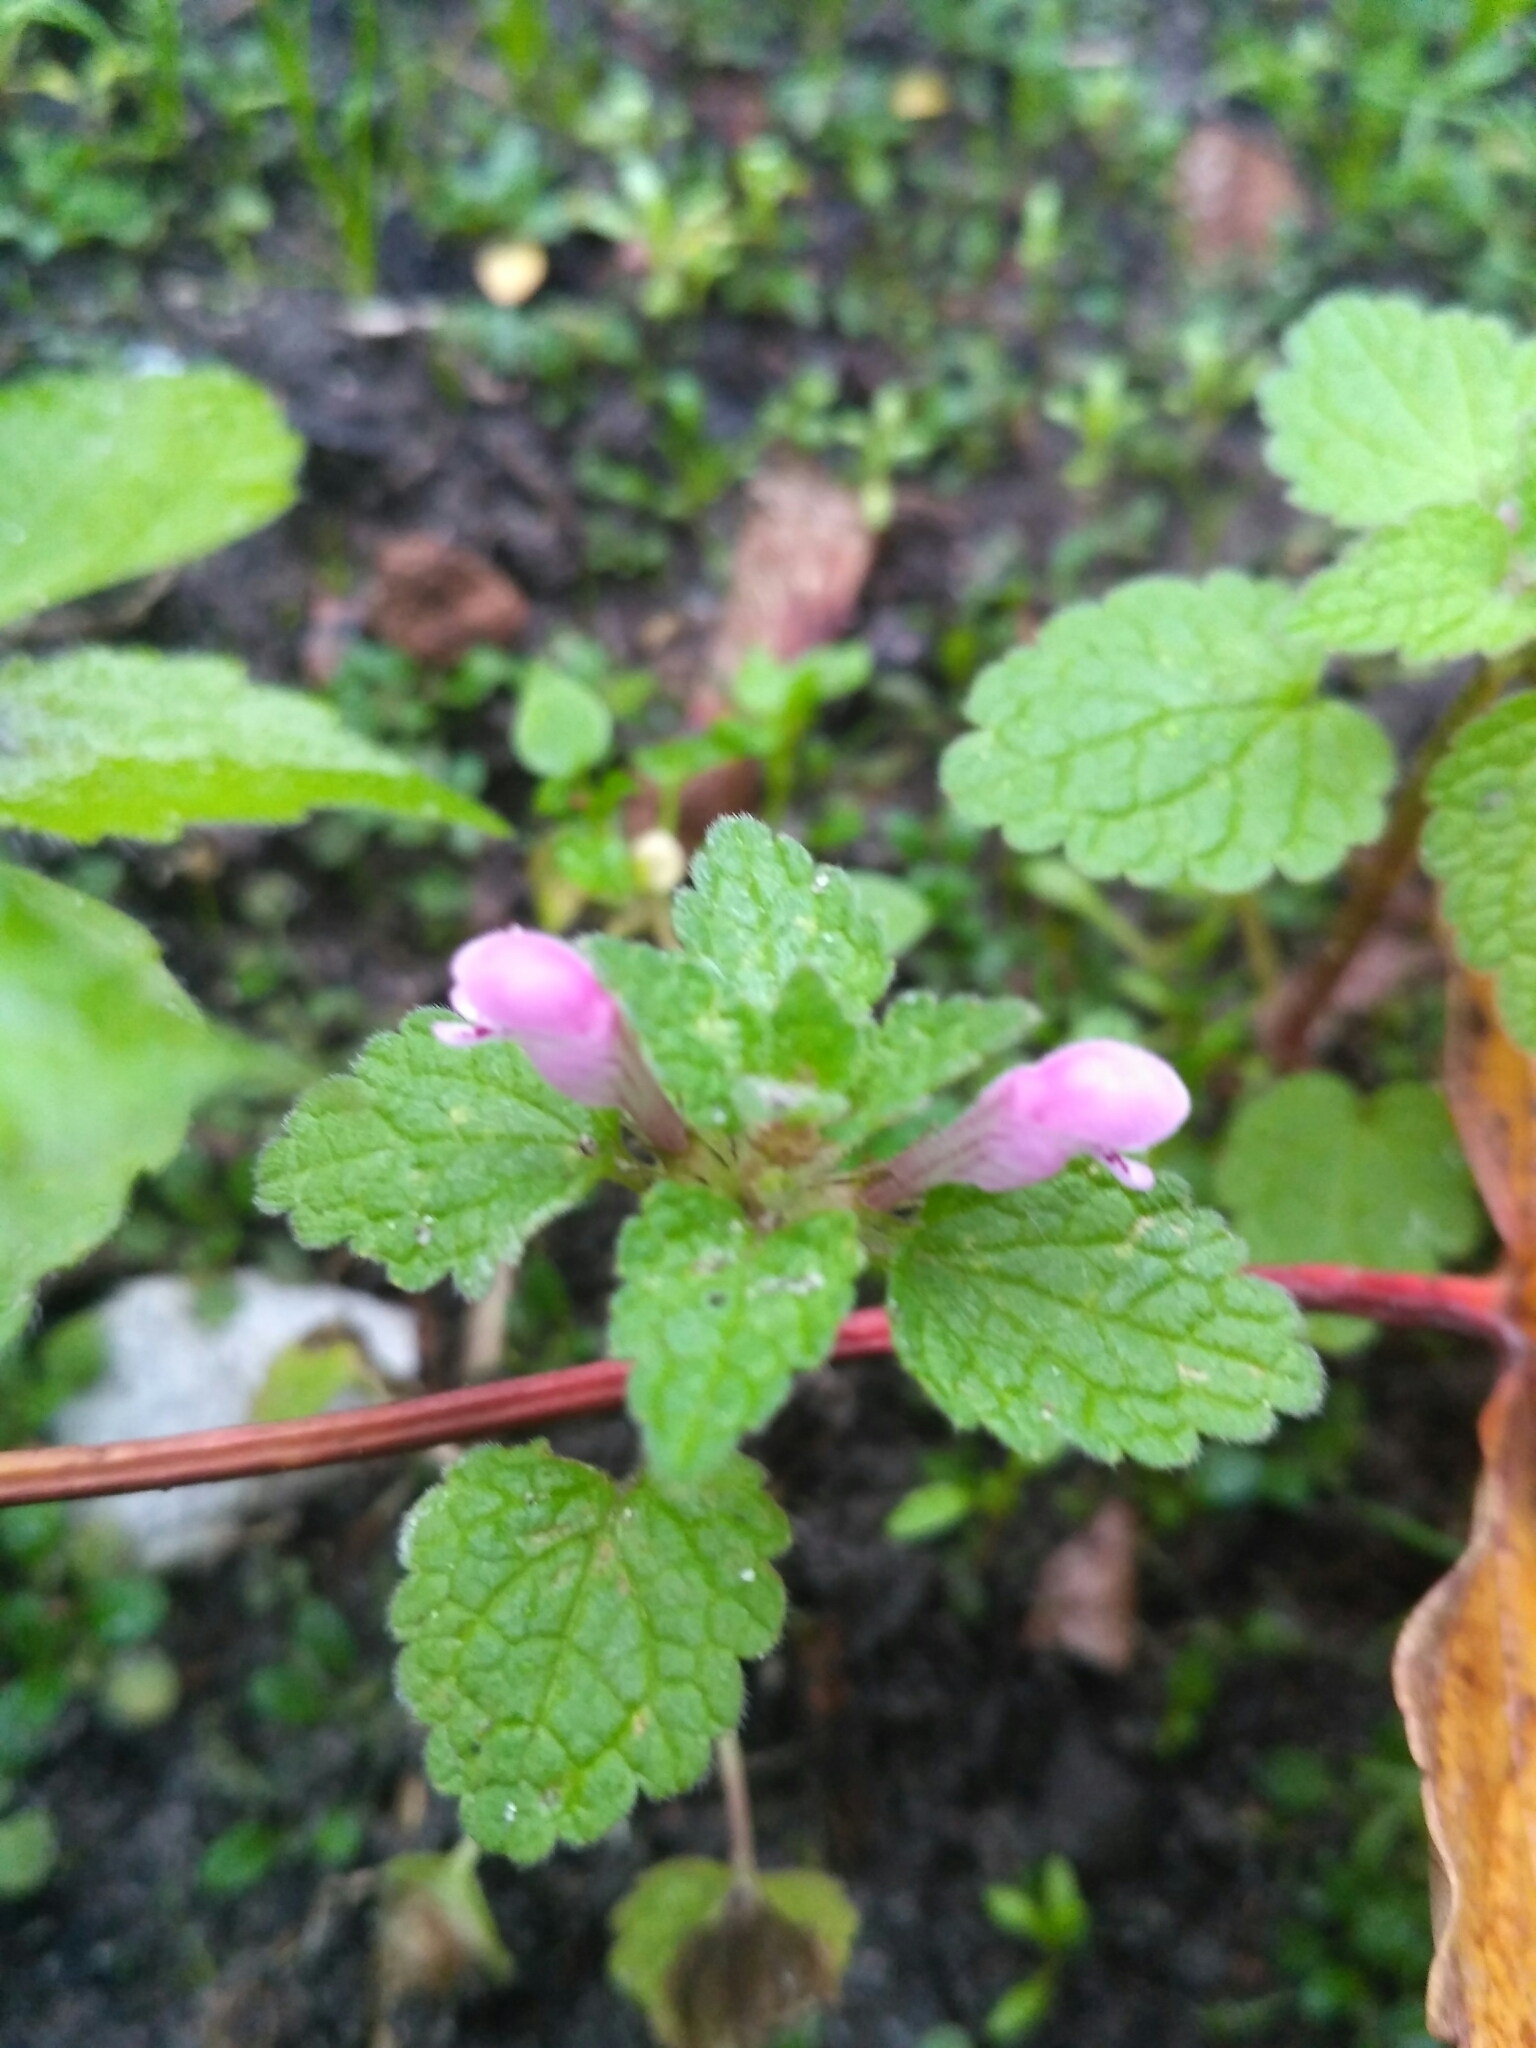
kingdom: Plantae
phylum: Tracheophyta
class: Magnoliopsida
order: Lamiales
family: Lamiaceae
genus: Lamium
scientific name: Lamium maculatum
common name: Spotted dead-nettle
